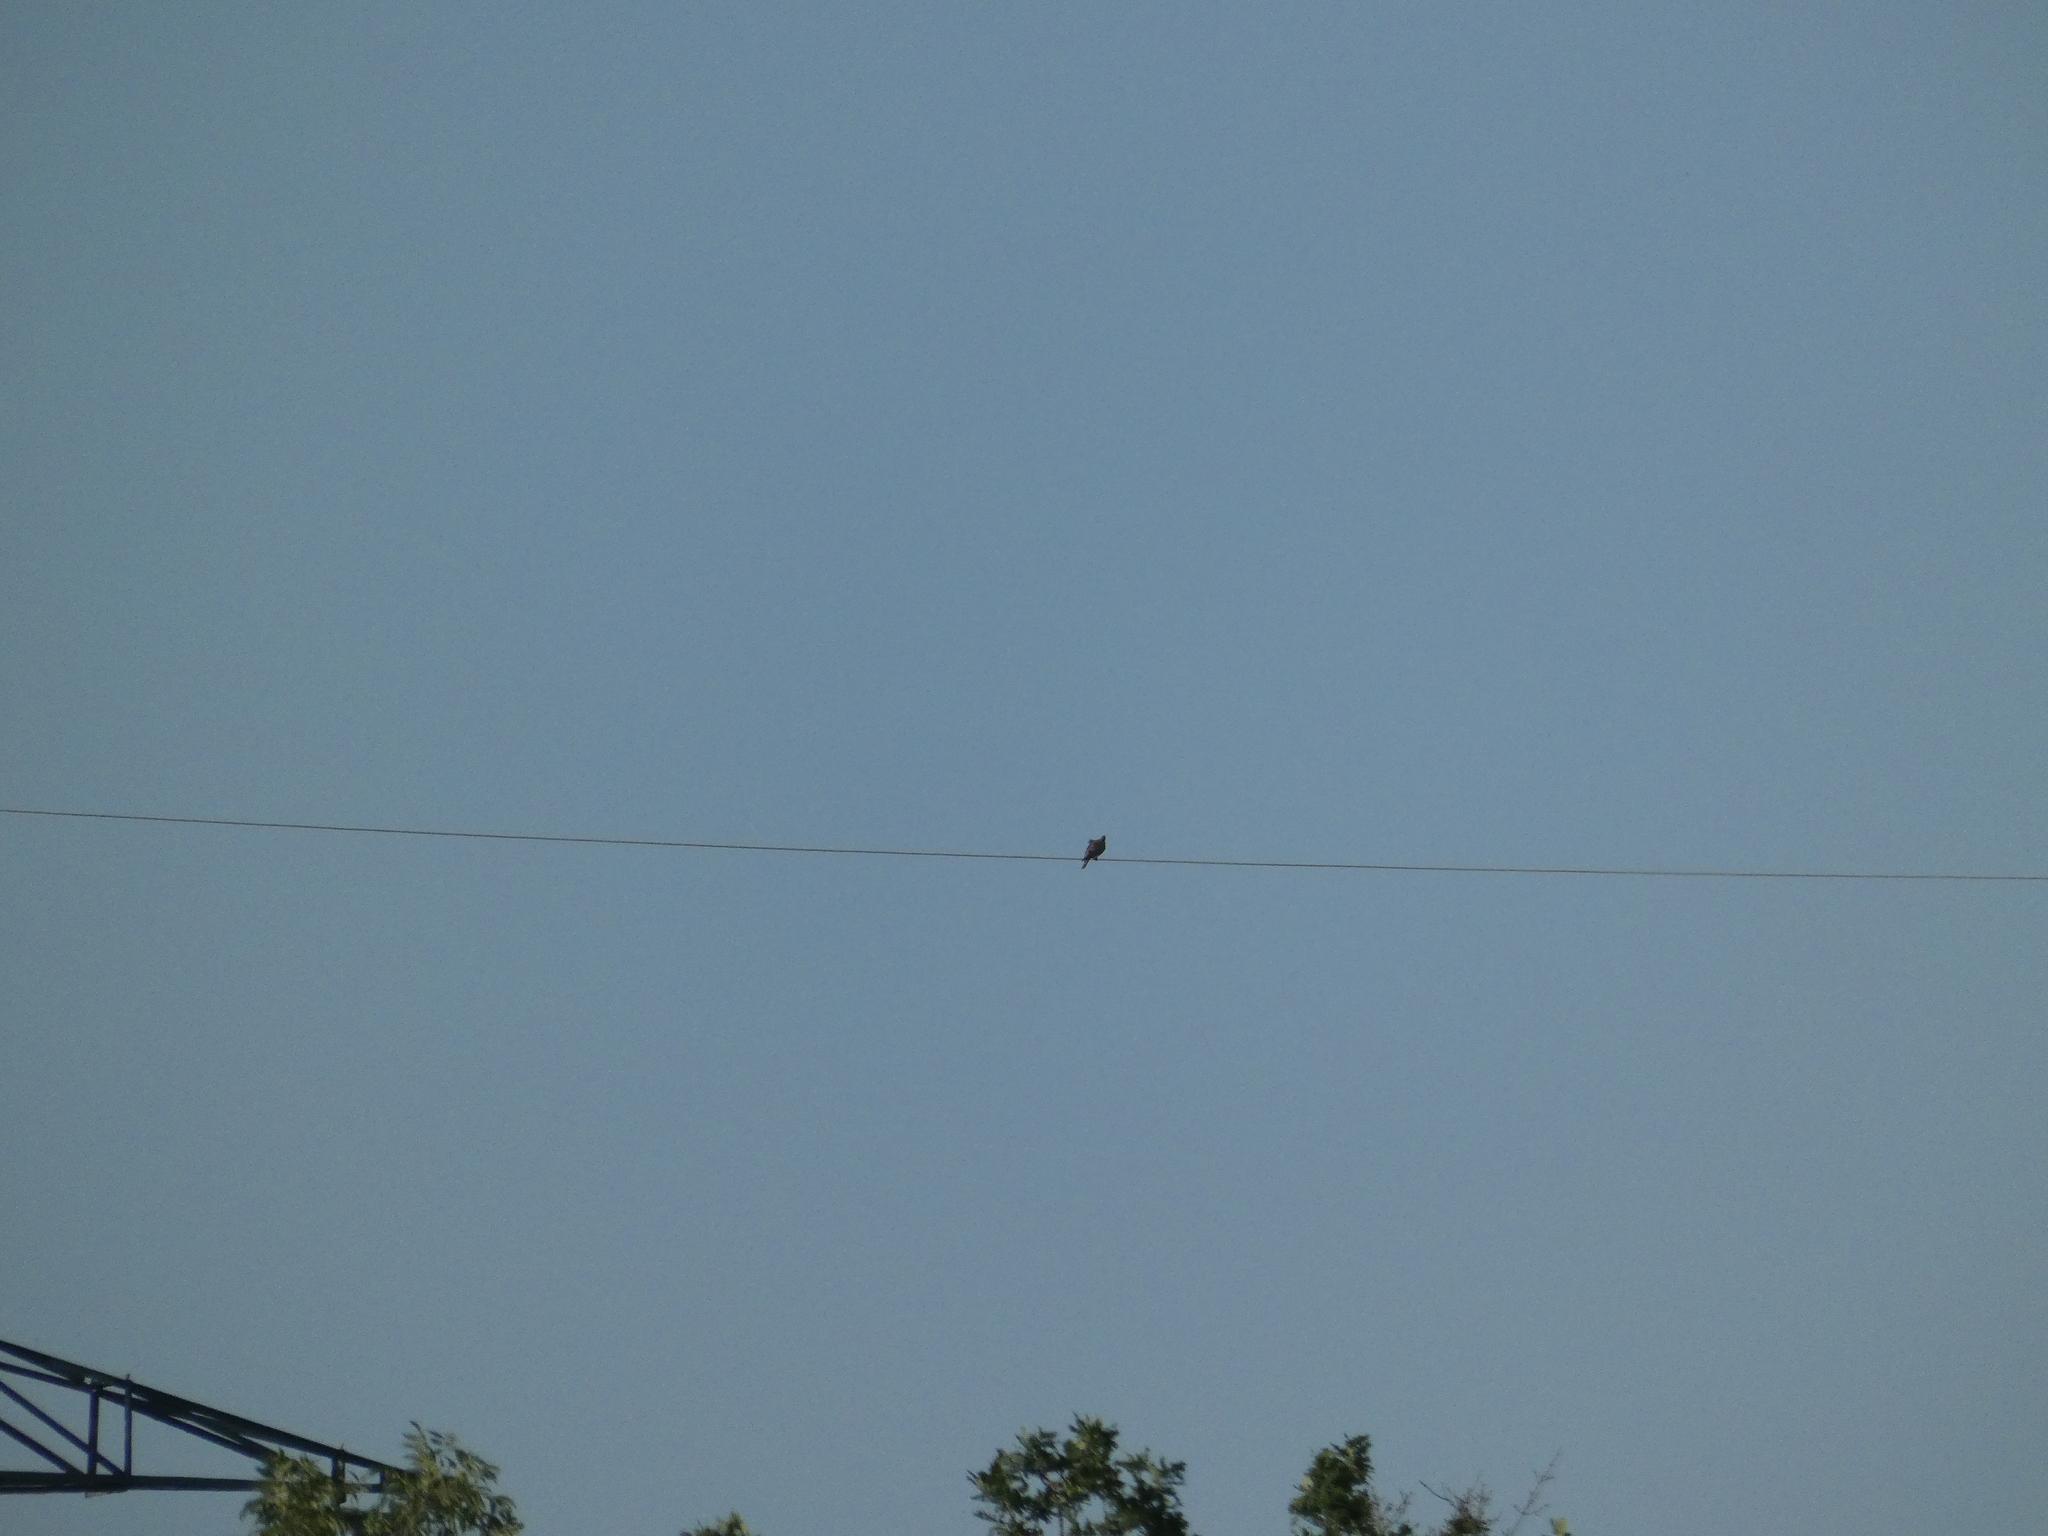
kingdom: Animalia
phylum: Chordata
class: Aves
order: Columbiformes
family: Columbidae
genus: Streptopelia
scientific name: Streptopelia turtur
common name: European turtle dove
